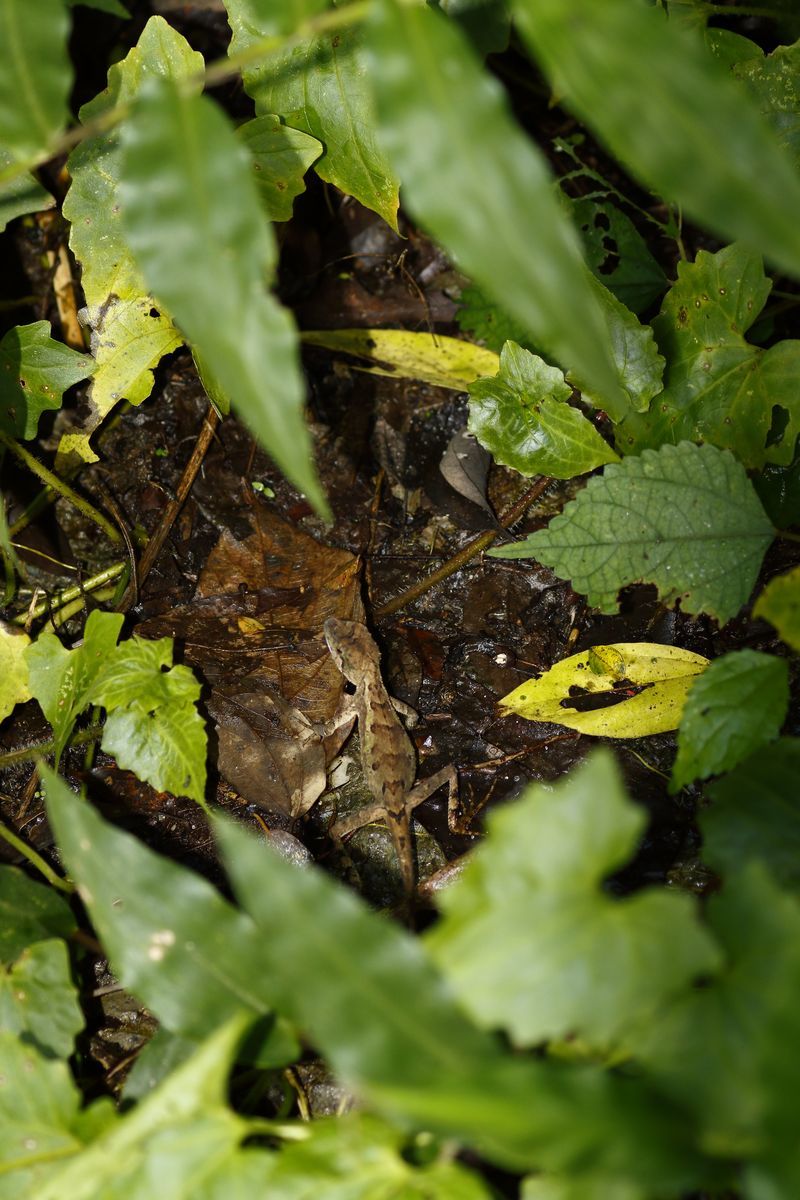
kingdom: Animalia
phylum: Chordata
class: Squamata
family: Agamidae
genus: Diploderma
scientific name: Diploderma swinhonis
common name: Taiwan japalure
